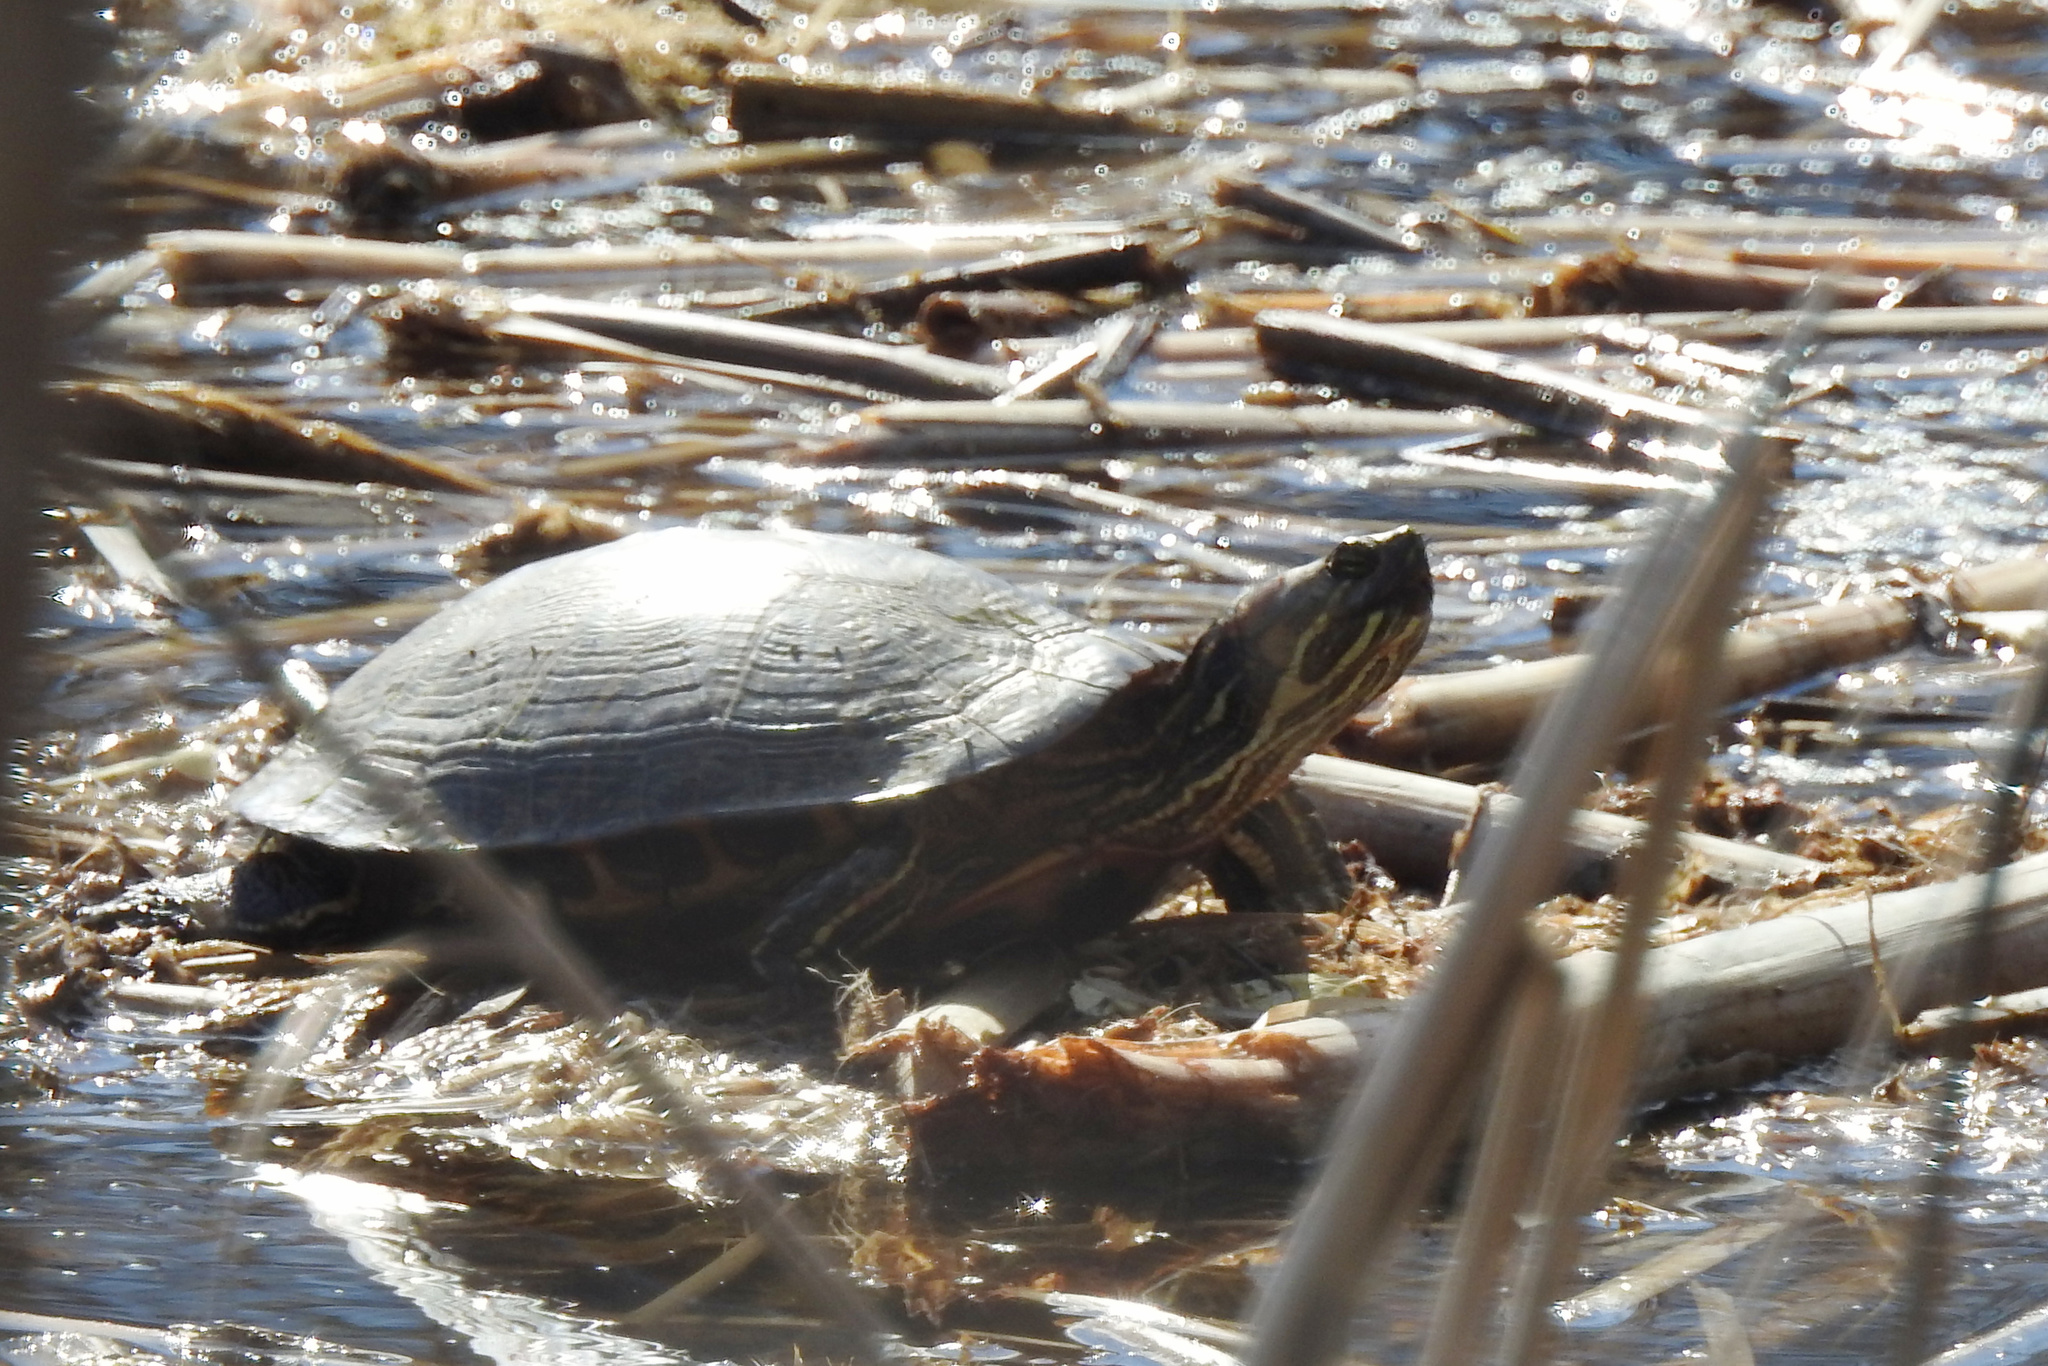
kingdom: Animalia
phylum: Chordata
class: Testudines
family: Emydidae
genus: Trachemys
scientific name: Trachemys scripta
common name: Slider
